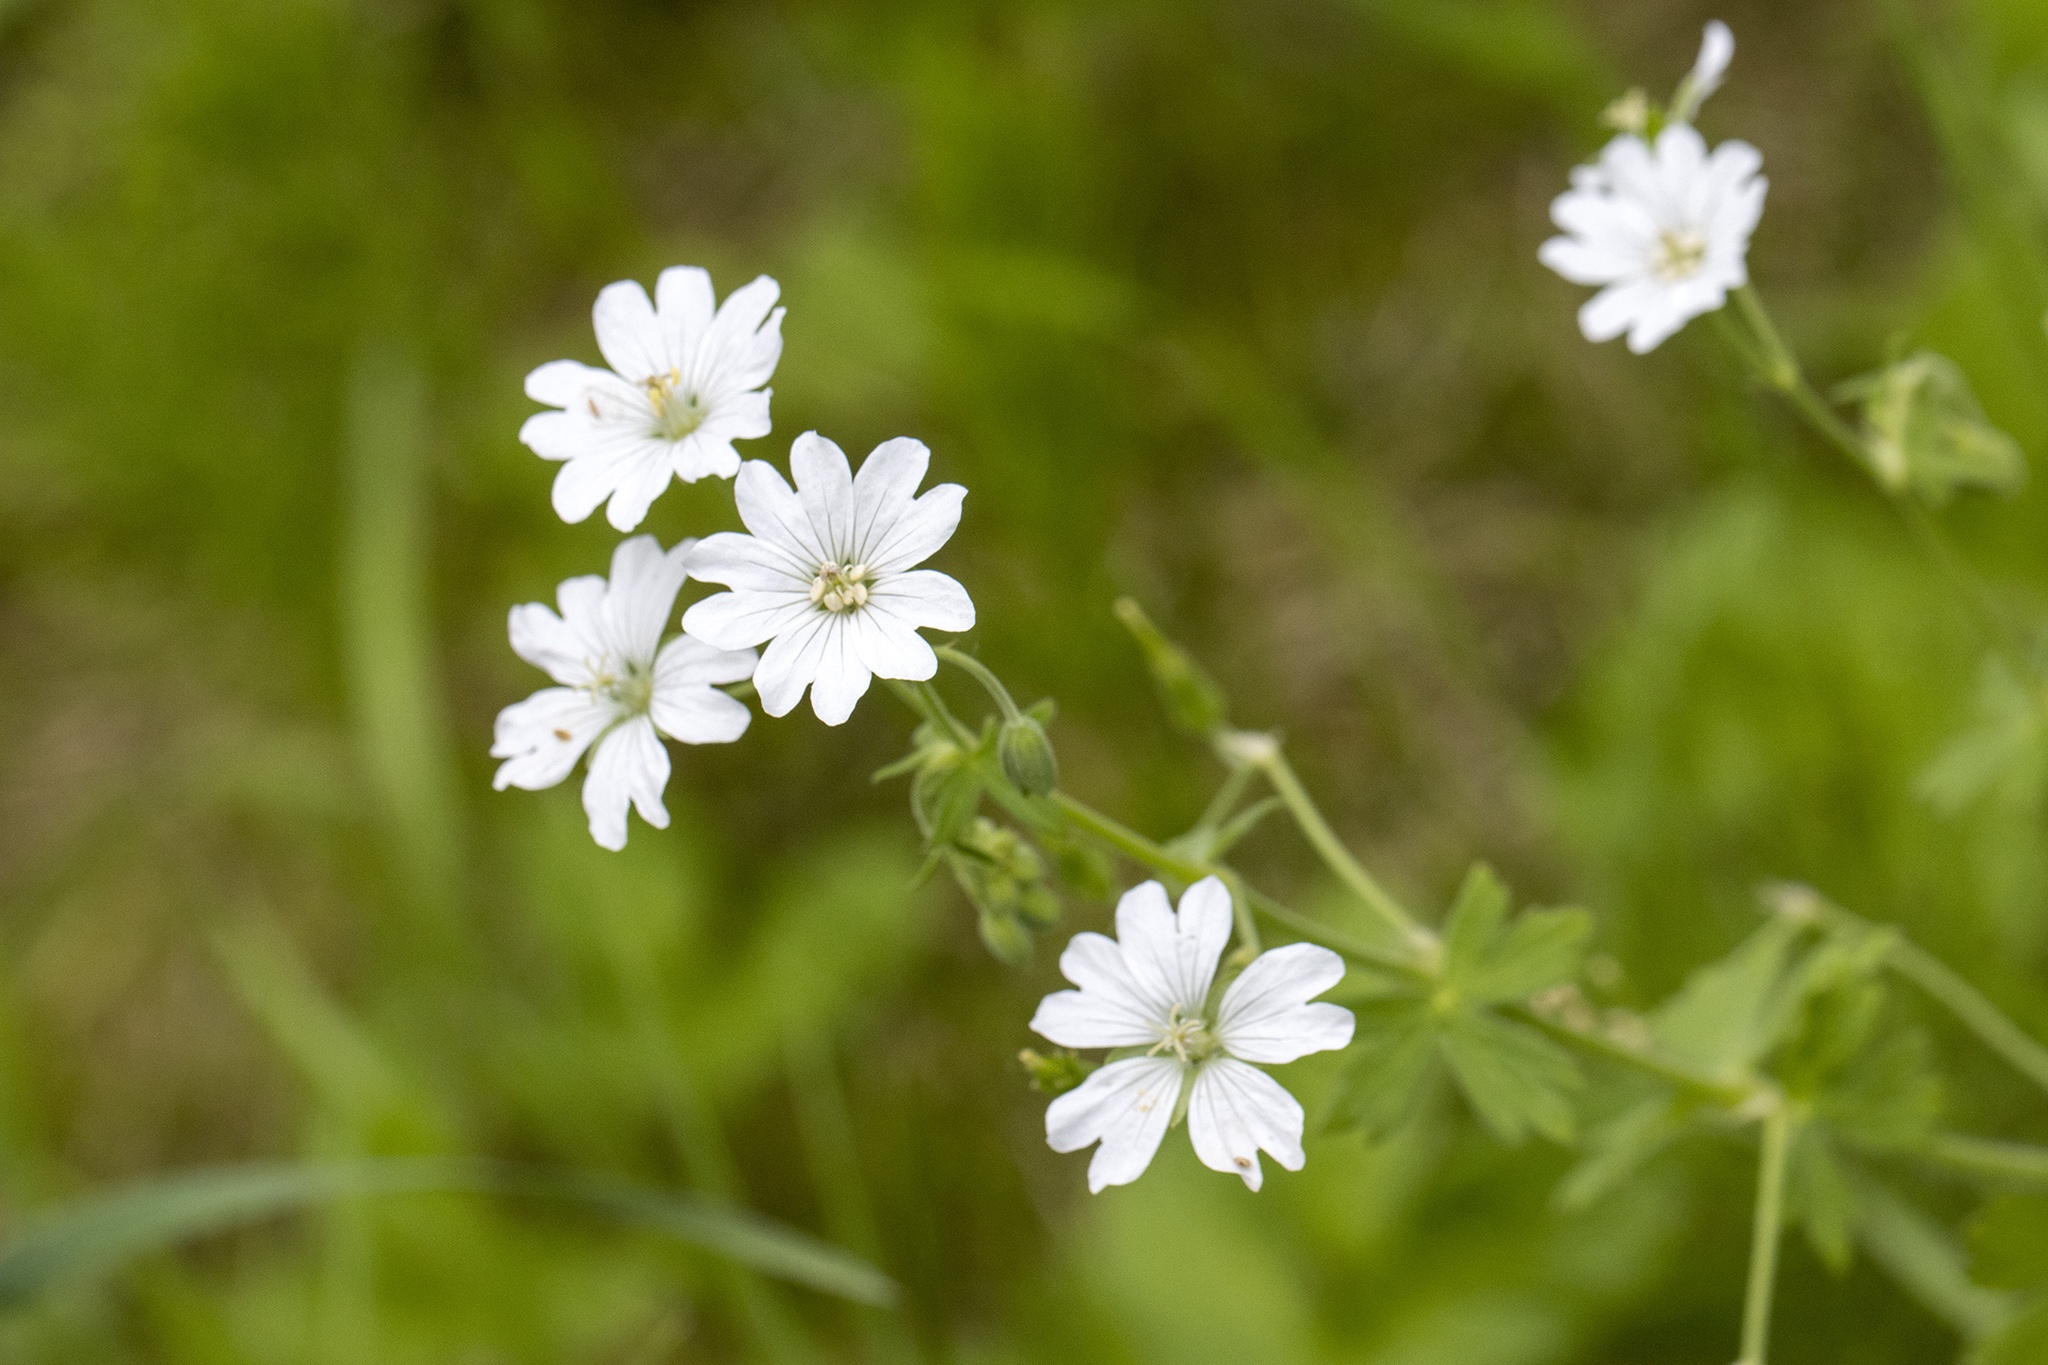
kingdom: Plantae
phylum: Tracheophyta
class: Magnoliopsida
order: Caryophyllales
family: Caryophyllaceae
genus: Rabelera
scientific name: Rabelera holostea
